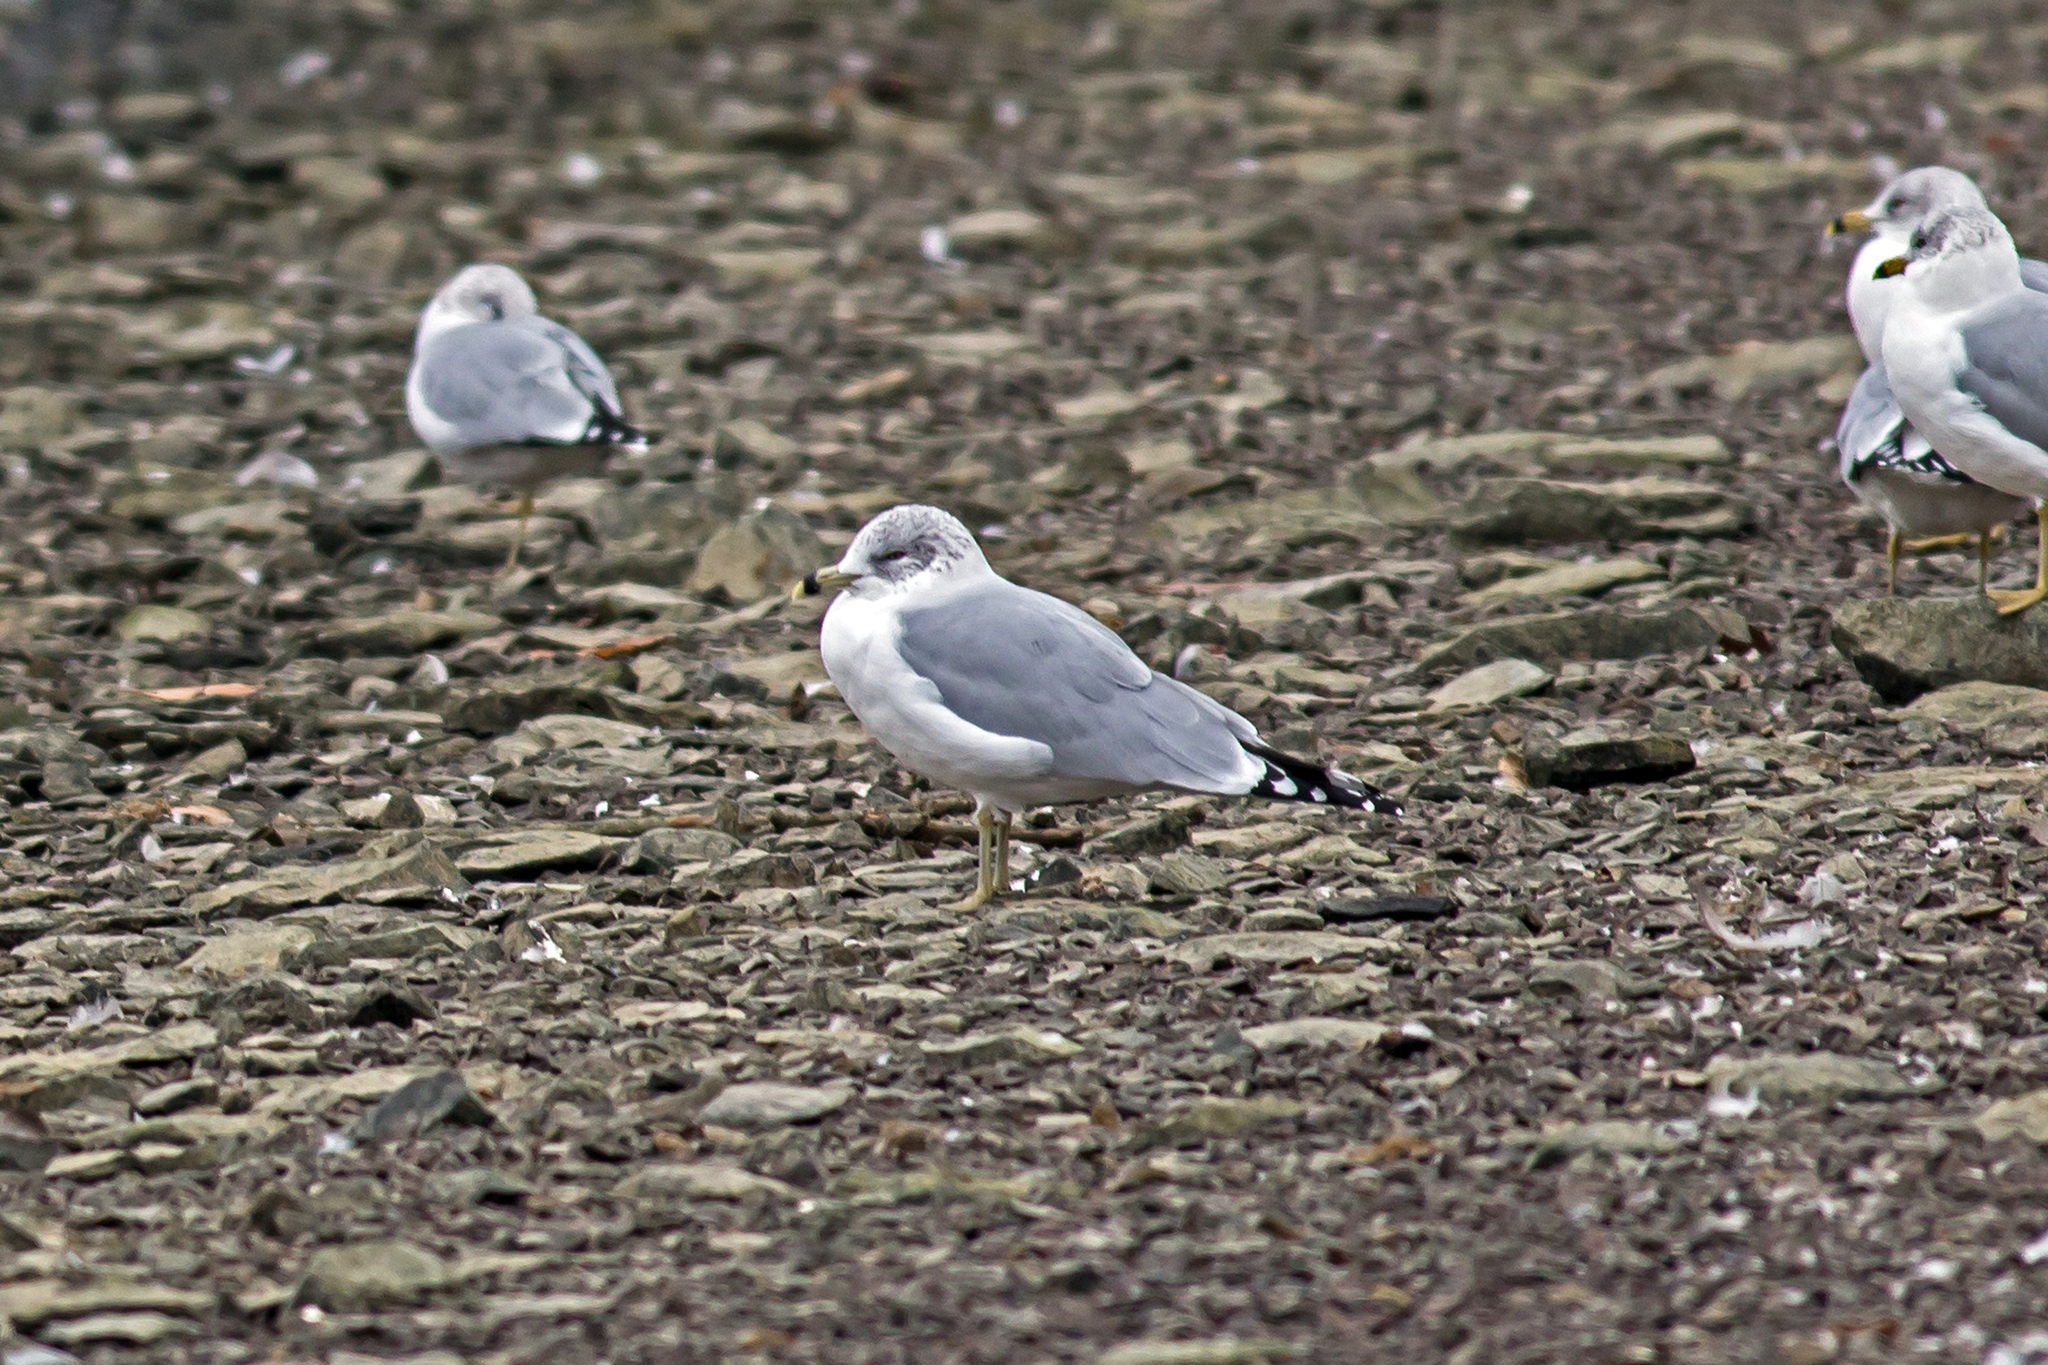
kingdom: Animalia
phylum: Chordata
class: Aves
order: Charadriiformes
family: Laridae
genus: Larus
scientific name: Larus delawarensis
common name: Ring-billed gull
